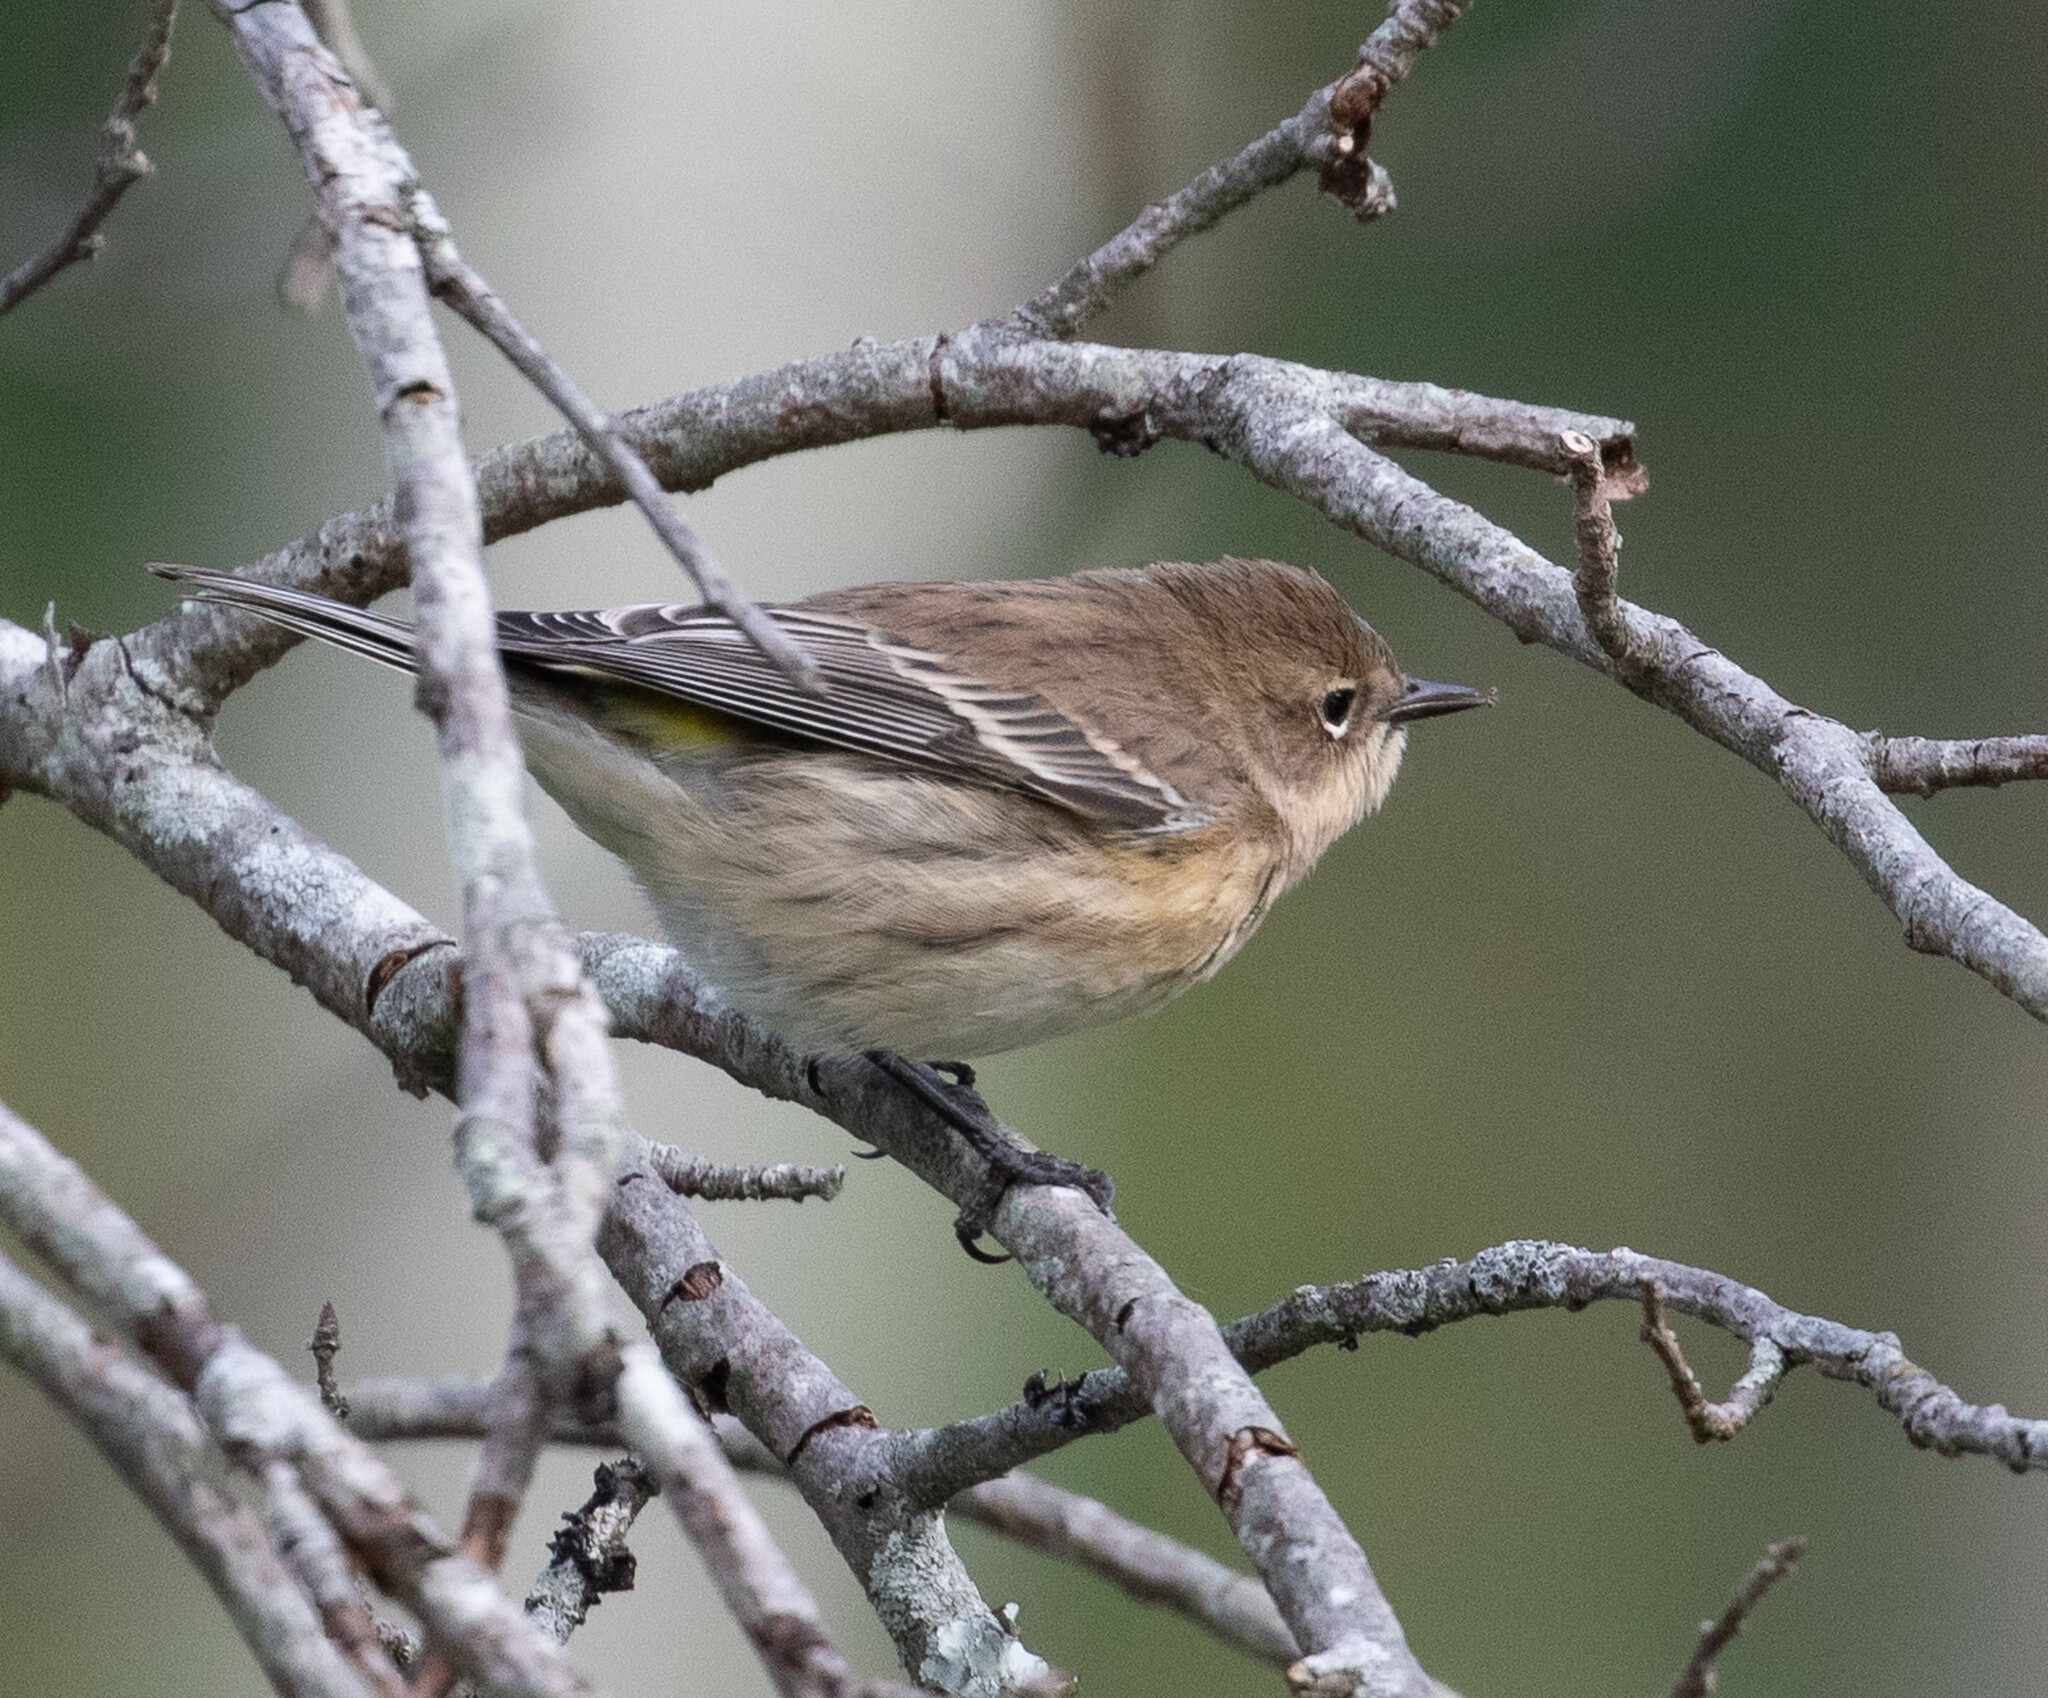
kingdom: Animalia
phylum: Chordata
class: Aves
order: Passeriformes
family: Parulidae
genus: Setophaga
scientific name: Setophaga coronata
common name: Myrtle warbler
